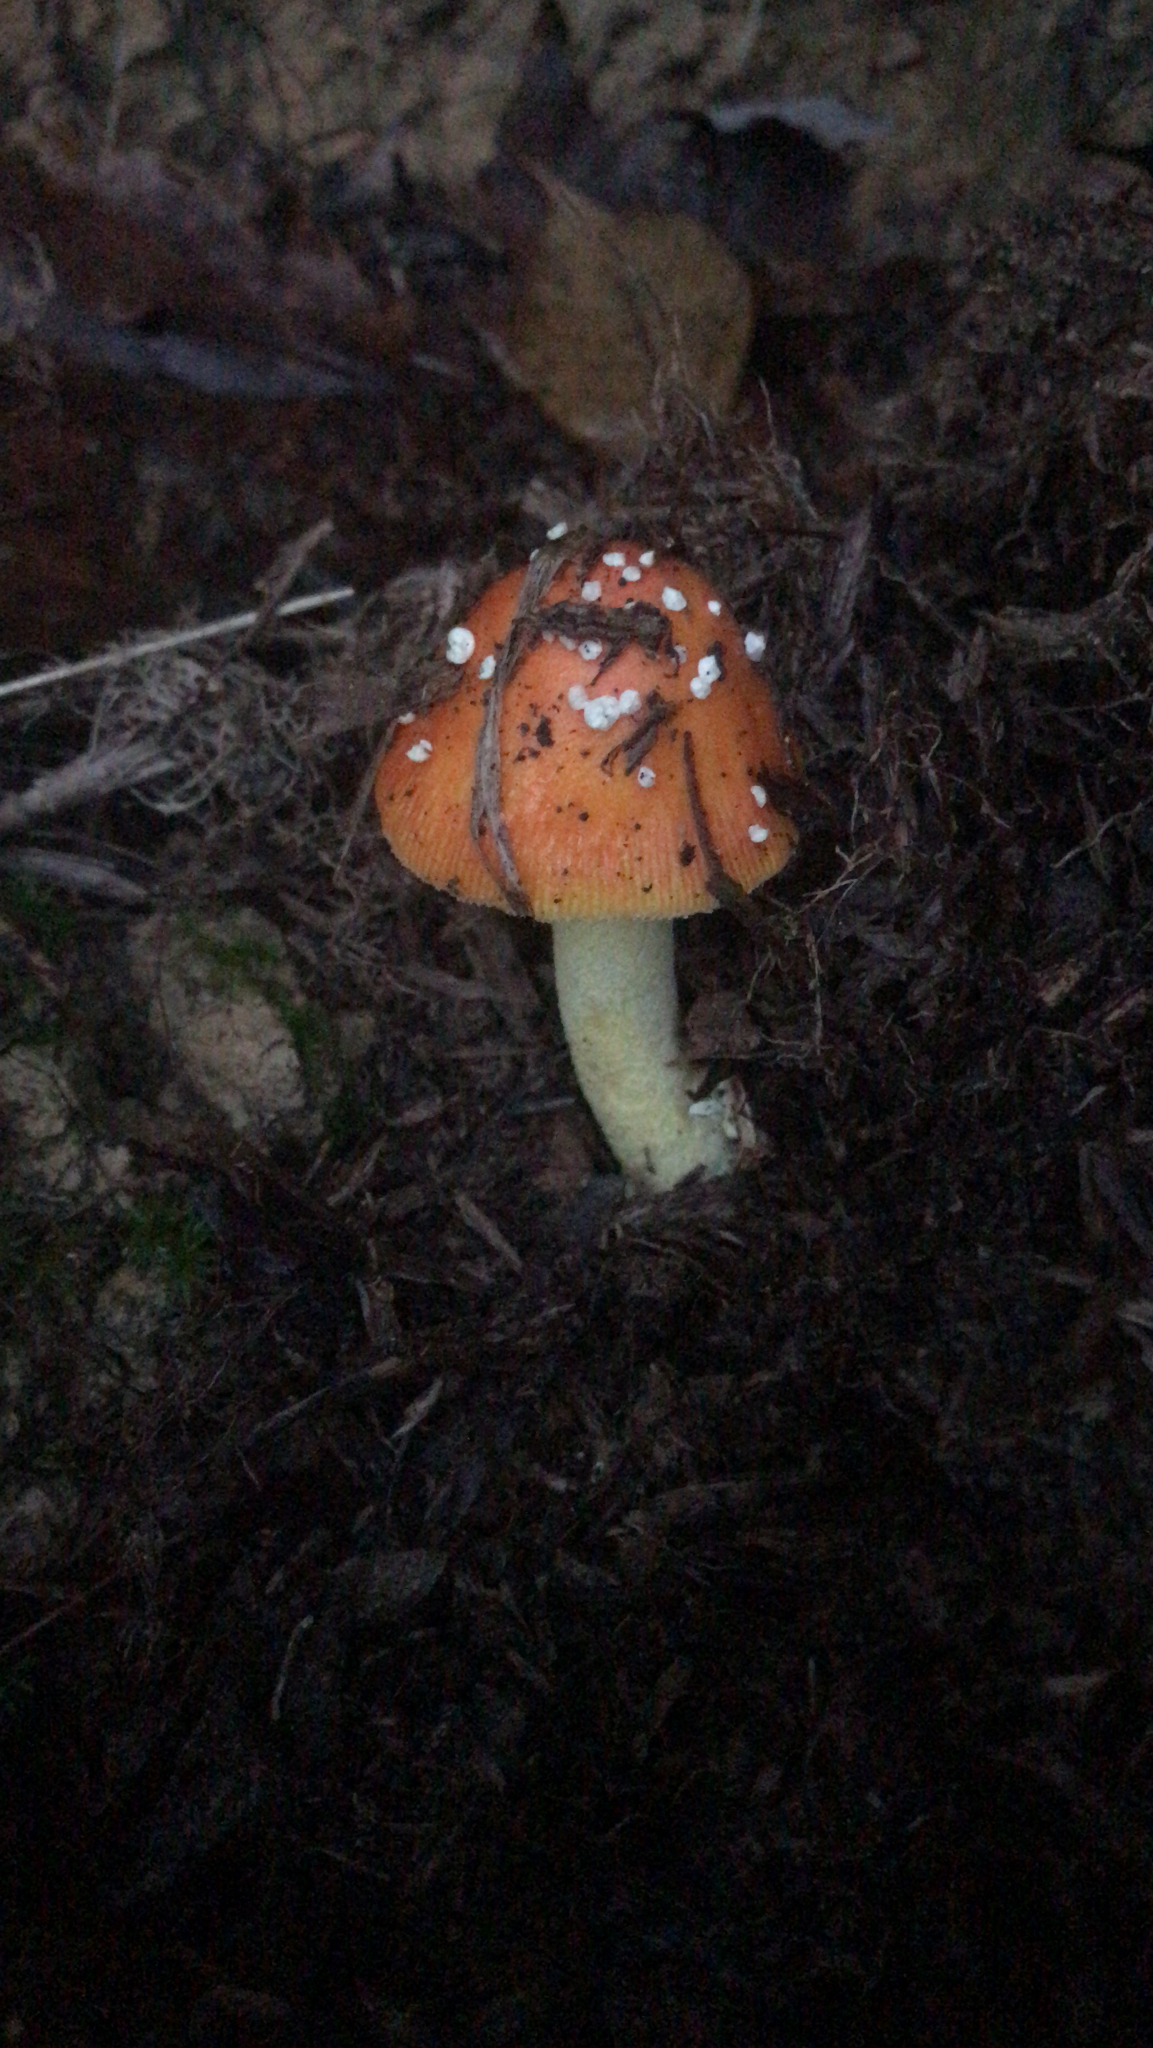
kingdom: Fungi
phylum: Basidiomycota
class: Agaricomycetes
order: Agaricales
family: Amanitaceae
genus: Amanita
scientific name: Amanita parcivolvata
